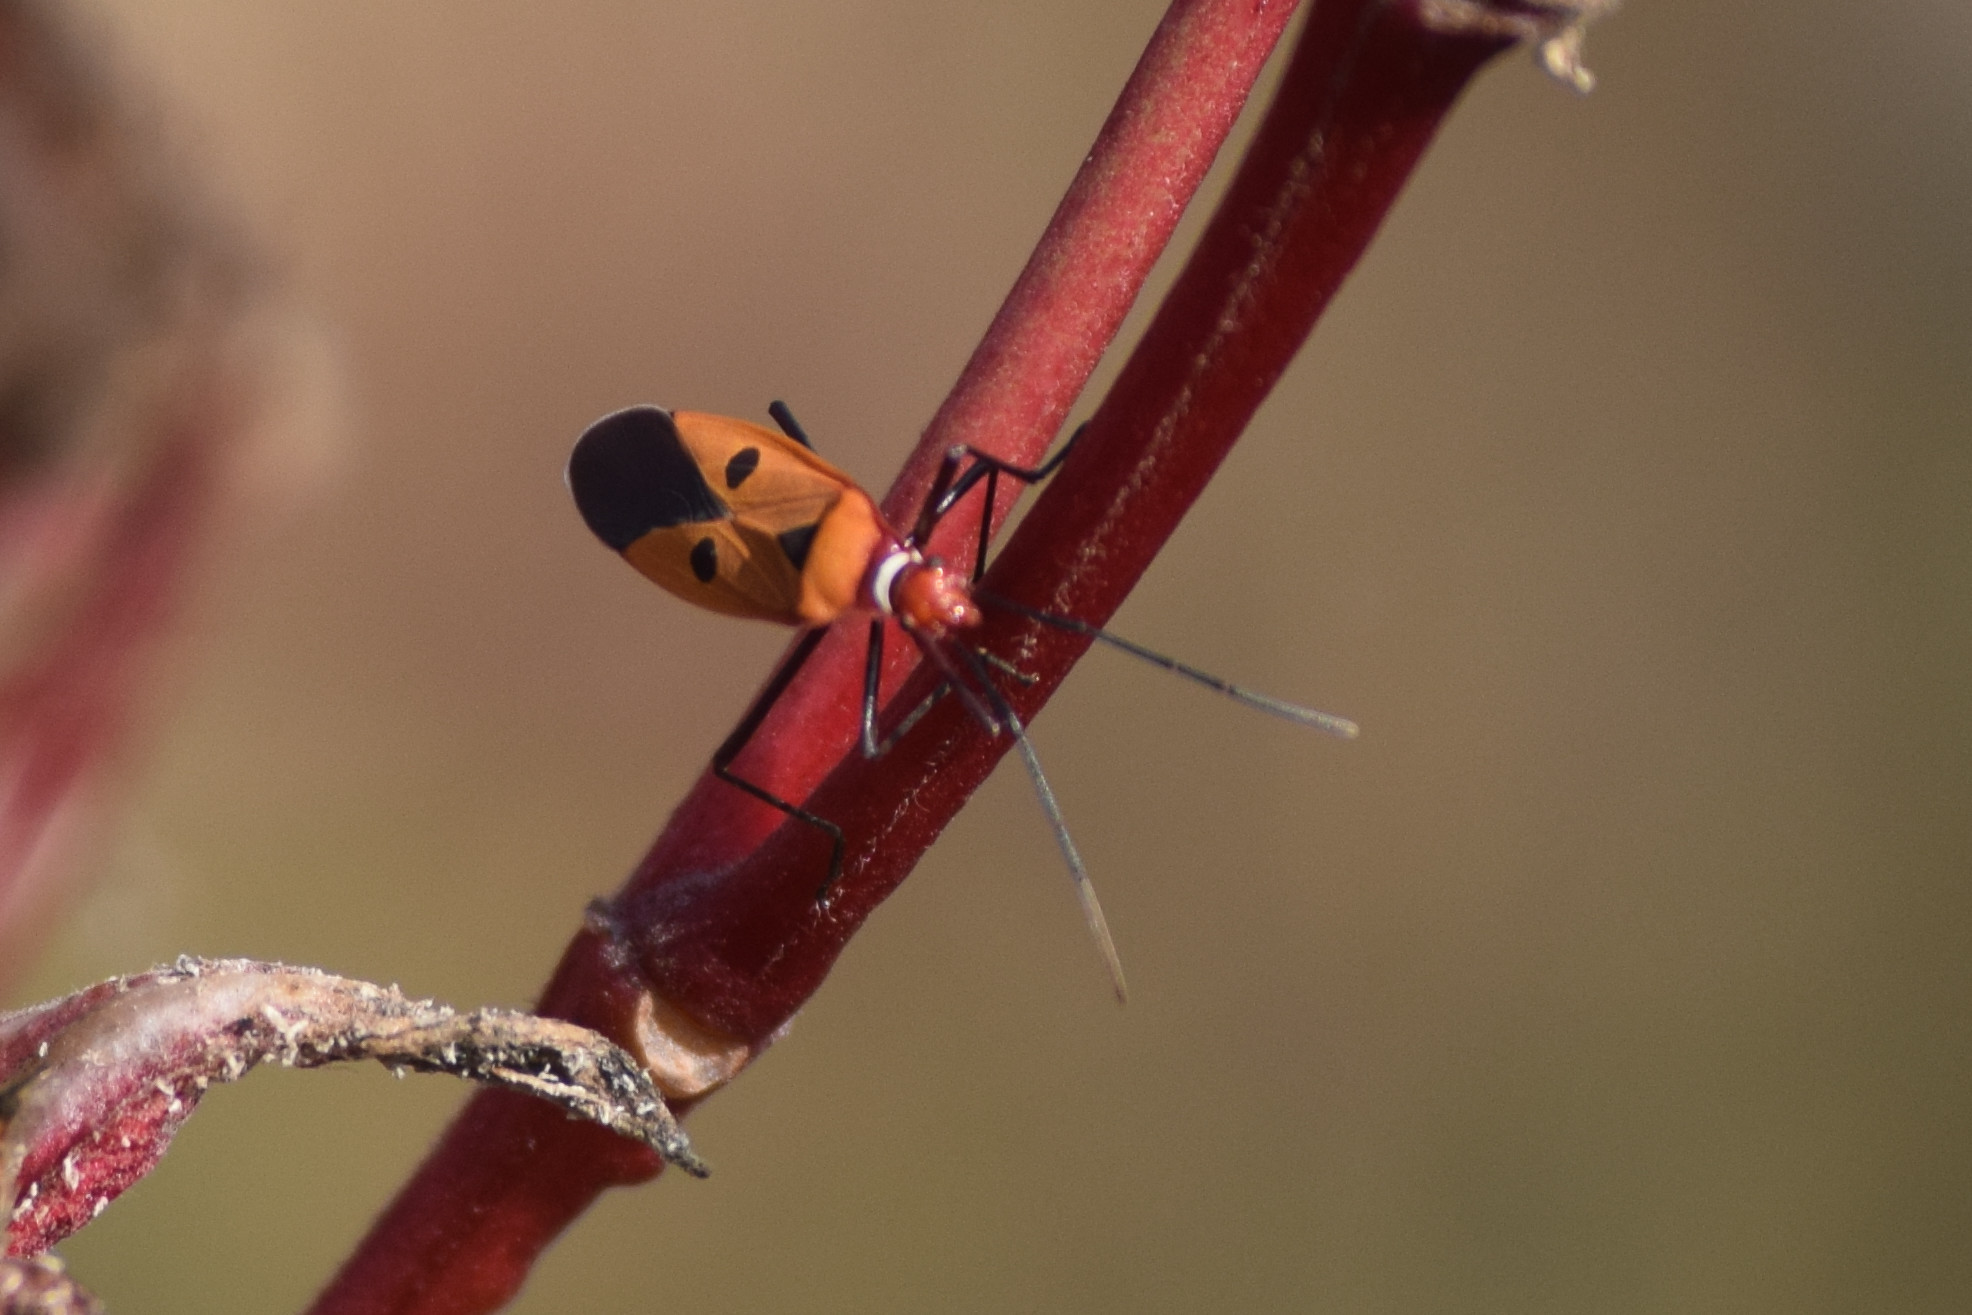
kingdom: Animalia
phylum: Arthropoda
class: Insecta
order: Hemiptera
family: Pyrrhocoridae
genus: Dysdercus
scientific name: Dysdercus cingulatus
